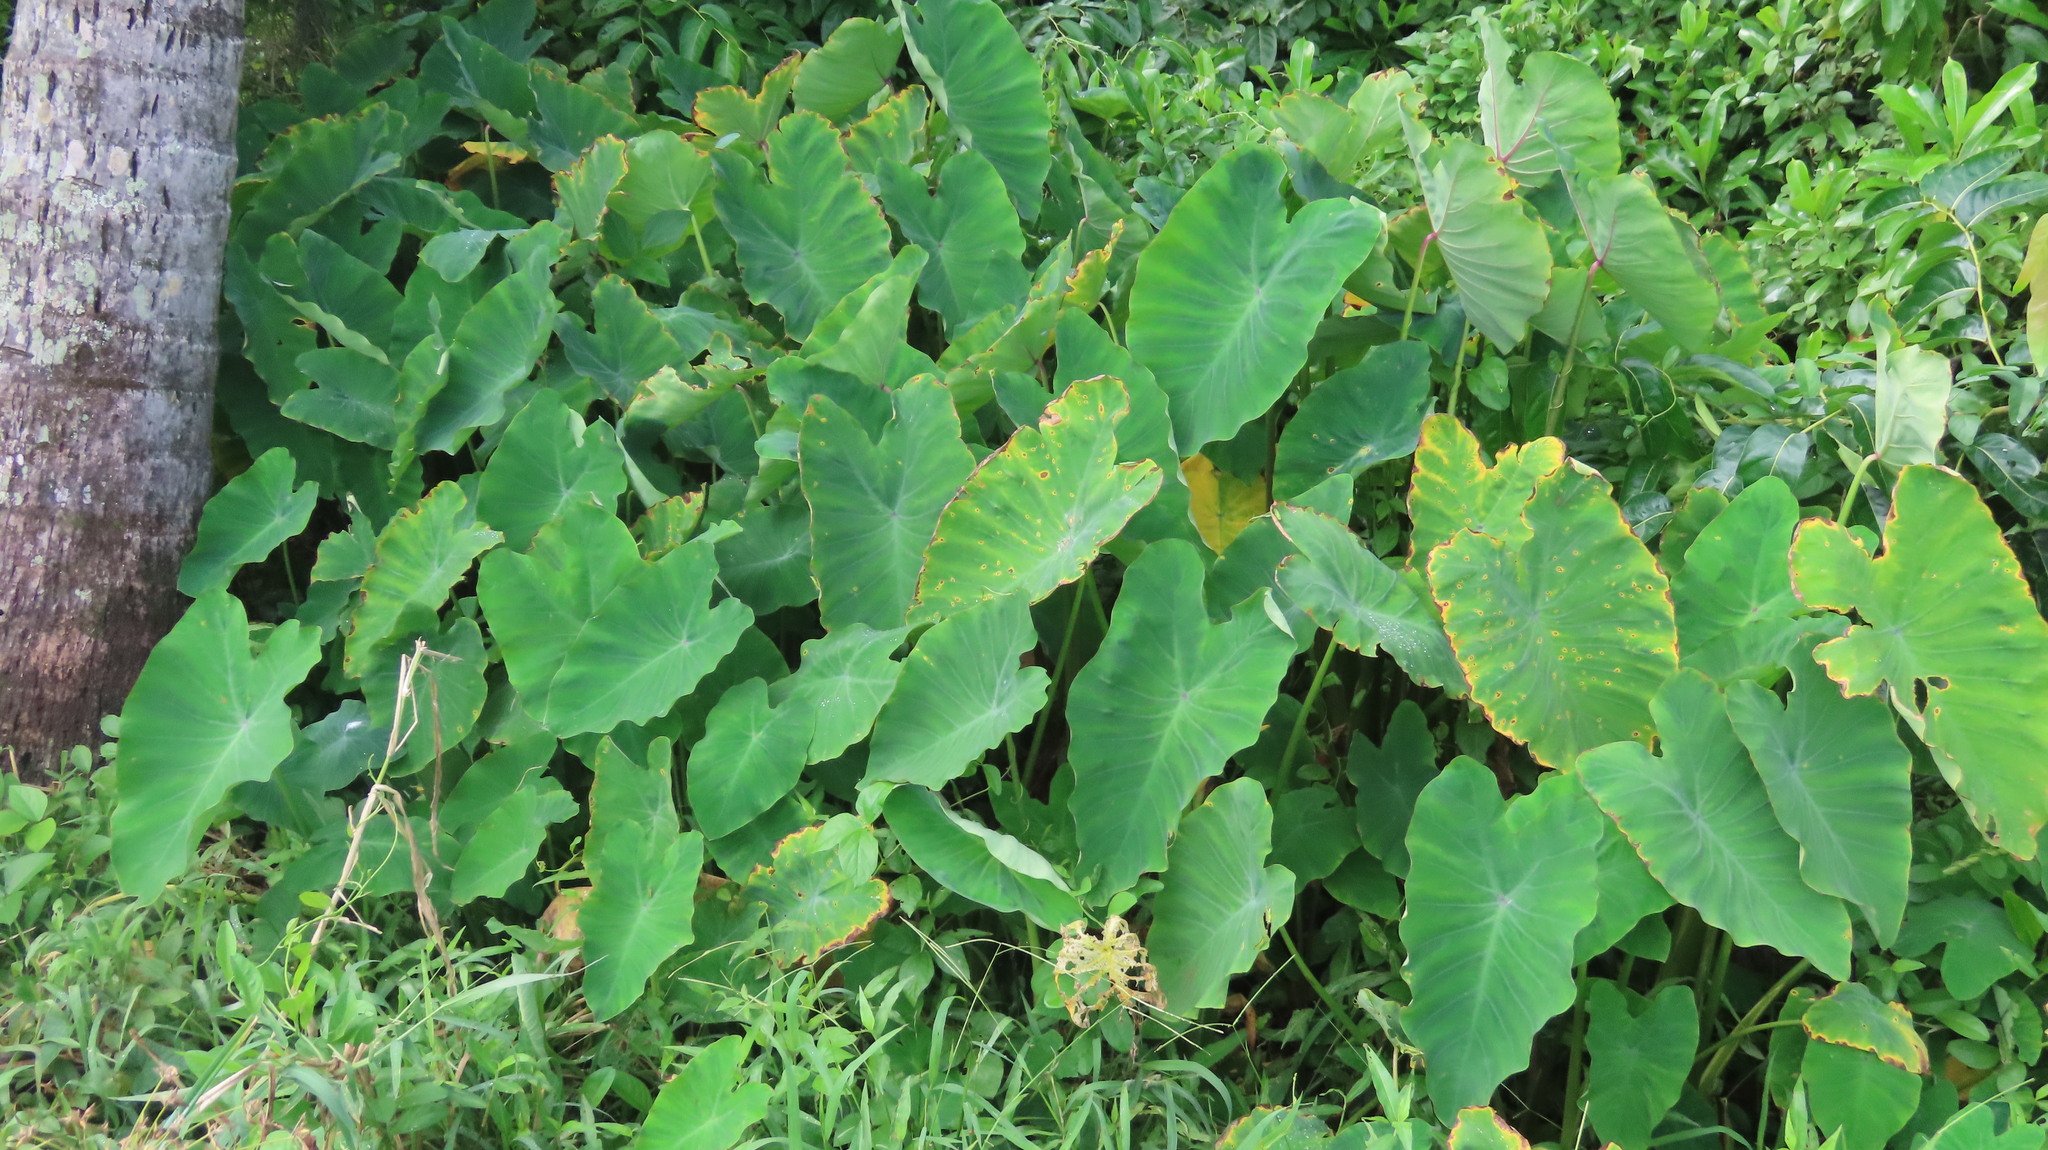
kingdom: Plantae
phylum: Tracheophyta
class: Liliopsida
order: Alismatales
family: Araceae
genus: Colocasia
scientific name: Colocasia esculenta
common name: Taro
